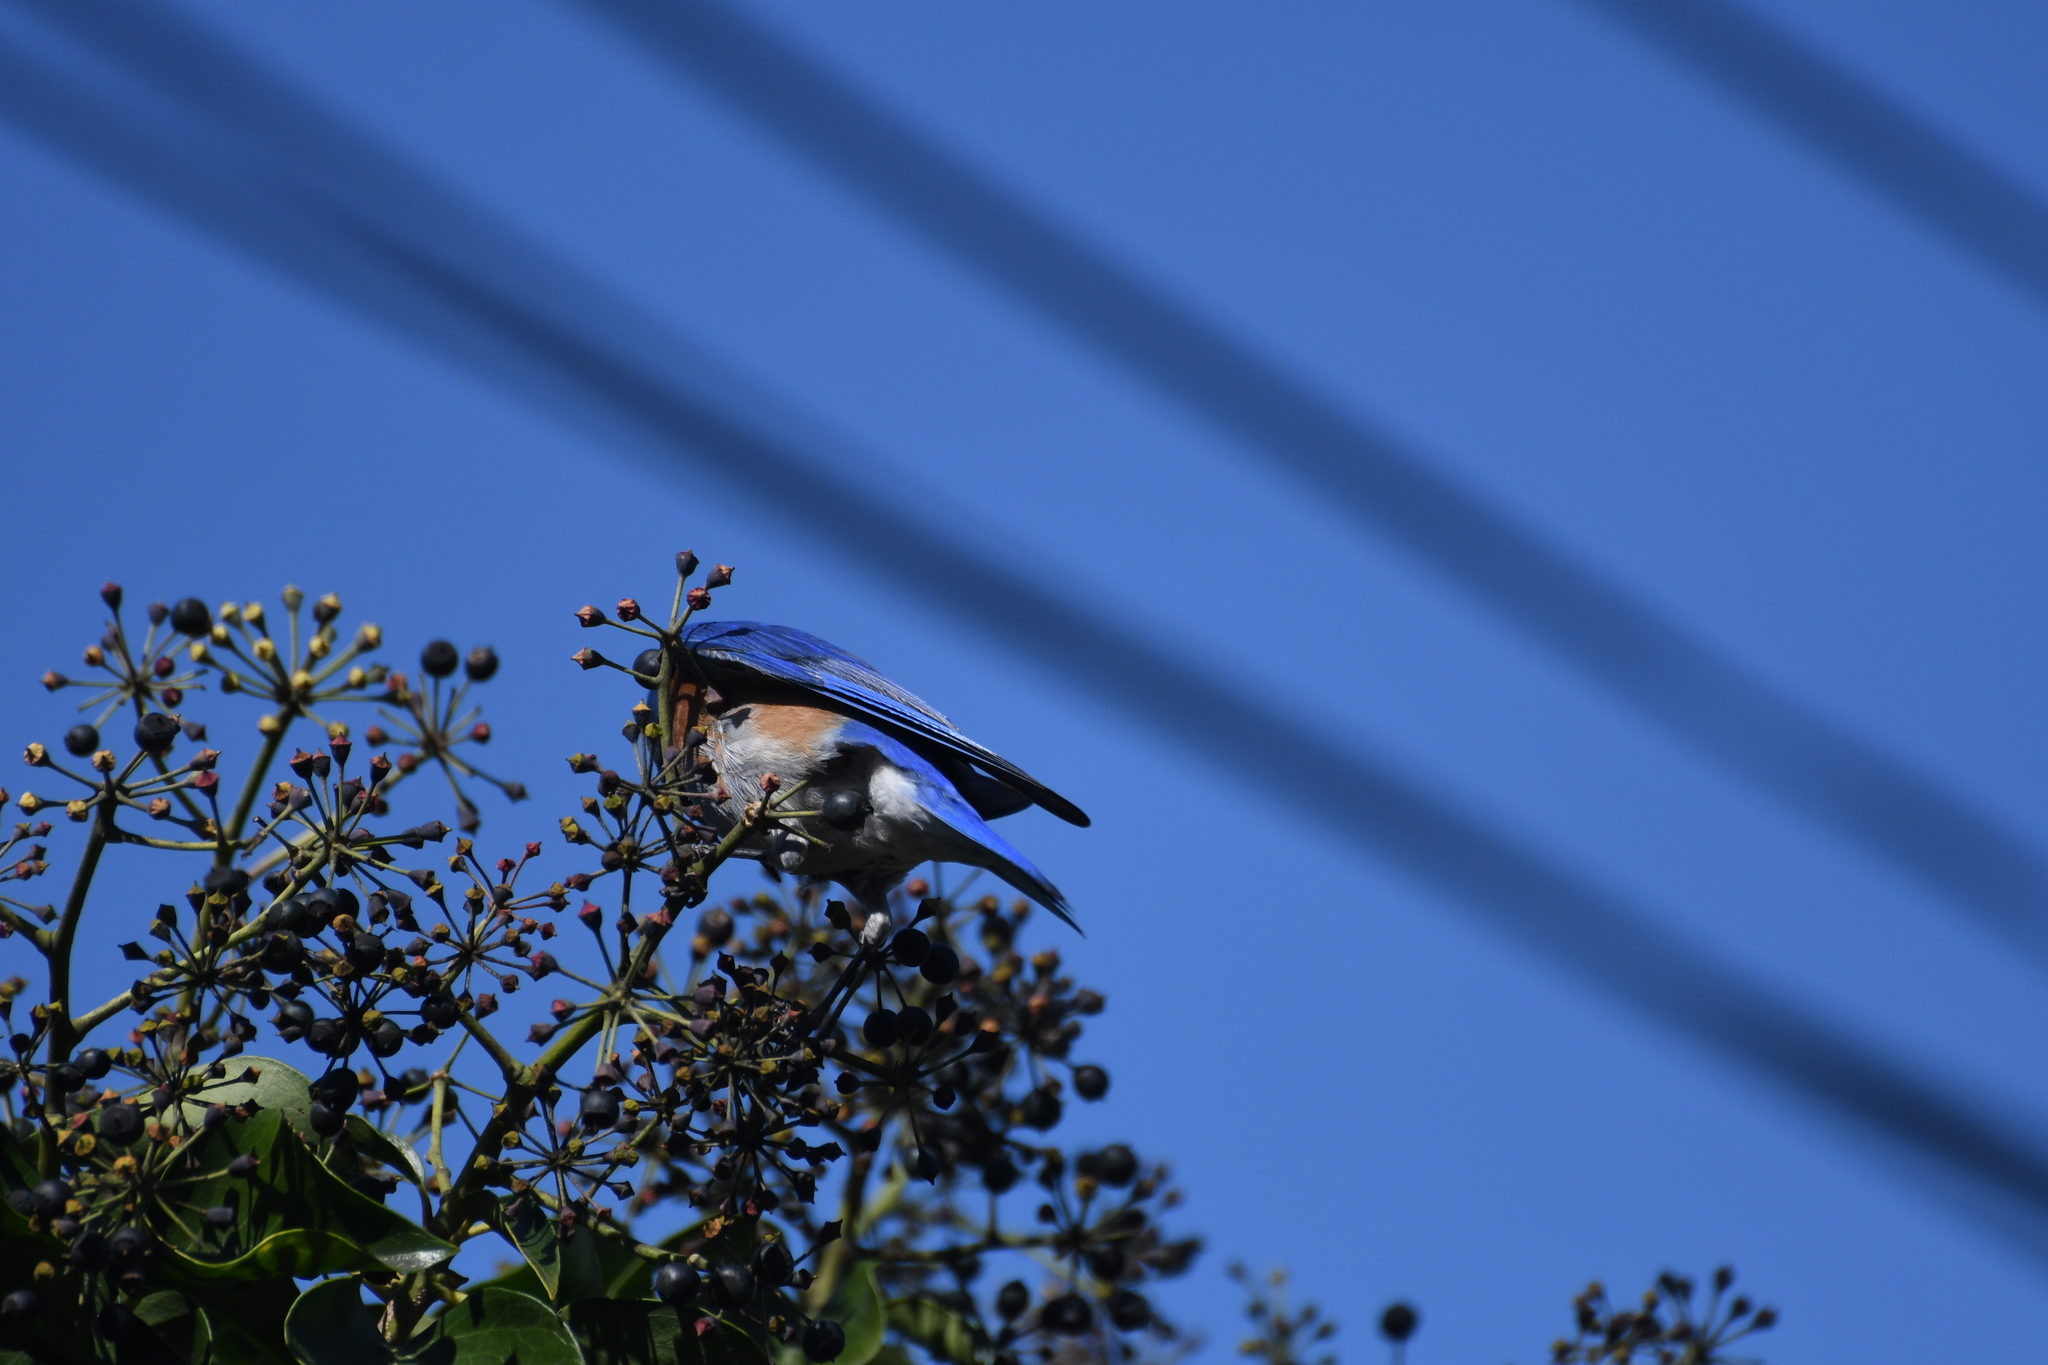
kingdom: Animalia
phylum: Chordata
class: Aves
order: Passeriformes
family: Turdidae
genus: Sialia
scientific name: Sialia mexicana
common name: Western bluebird
